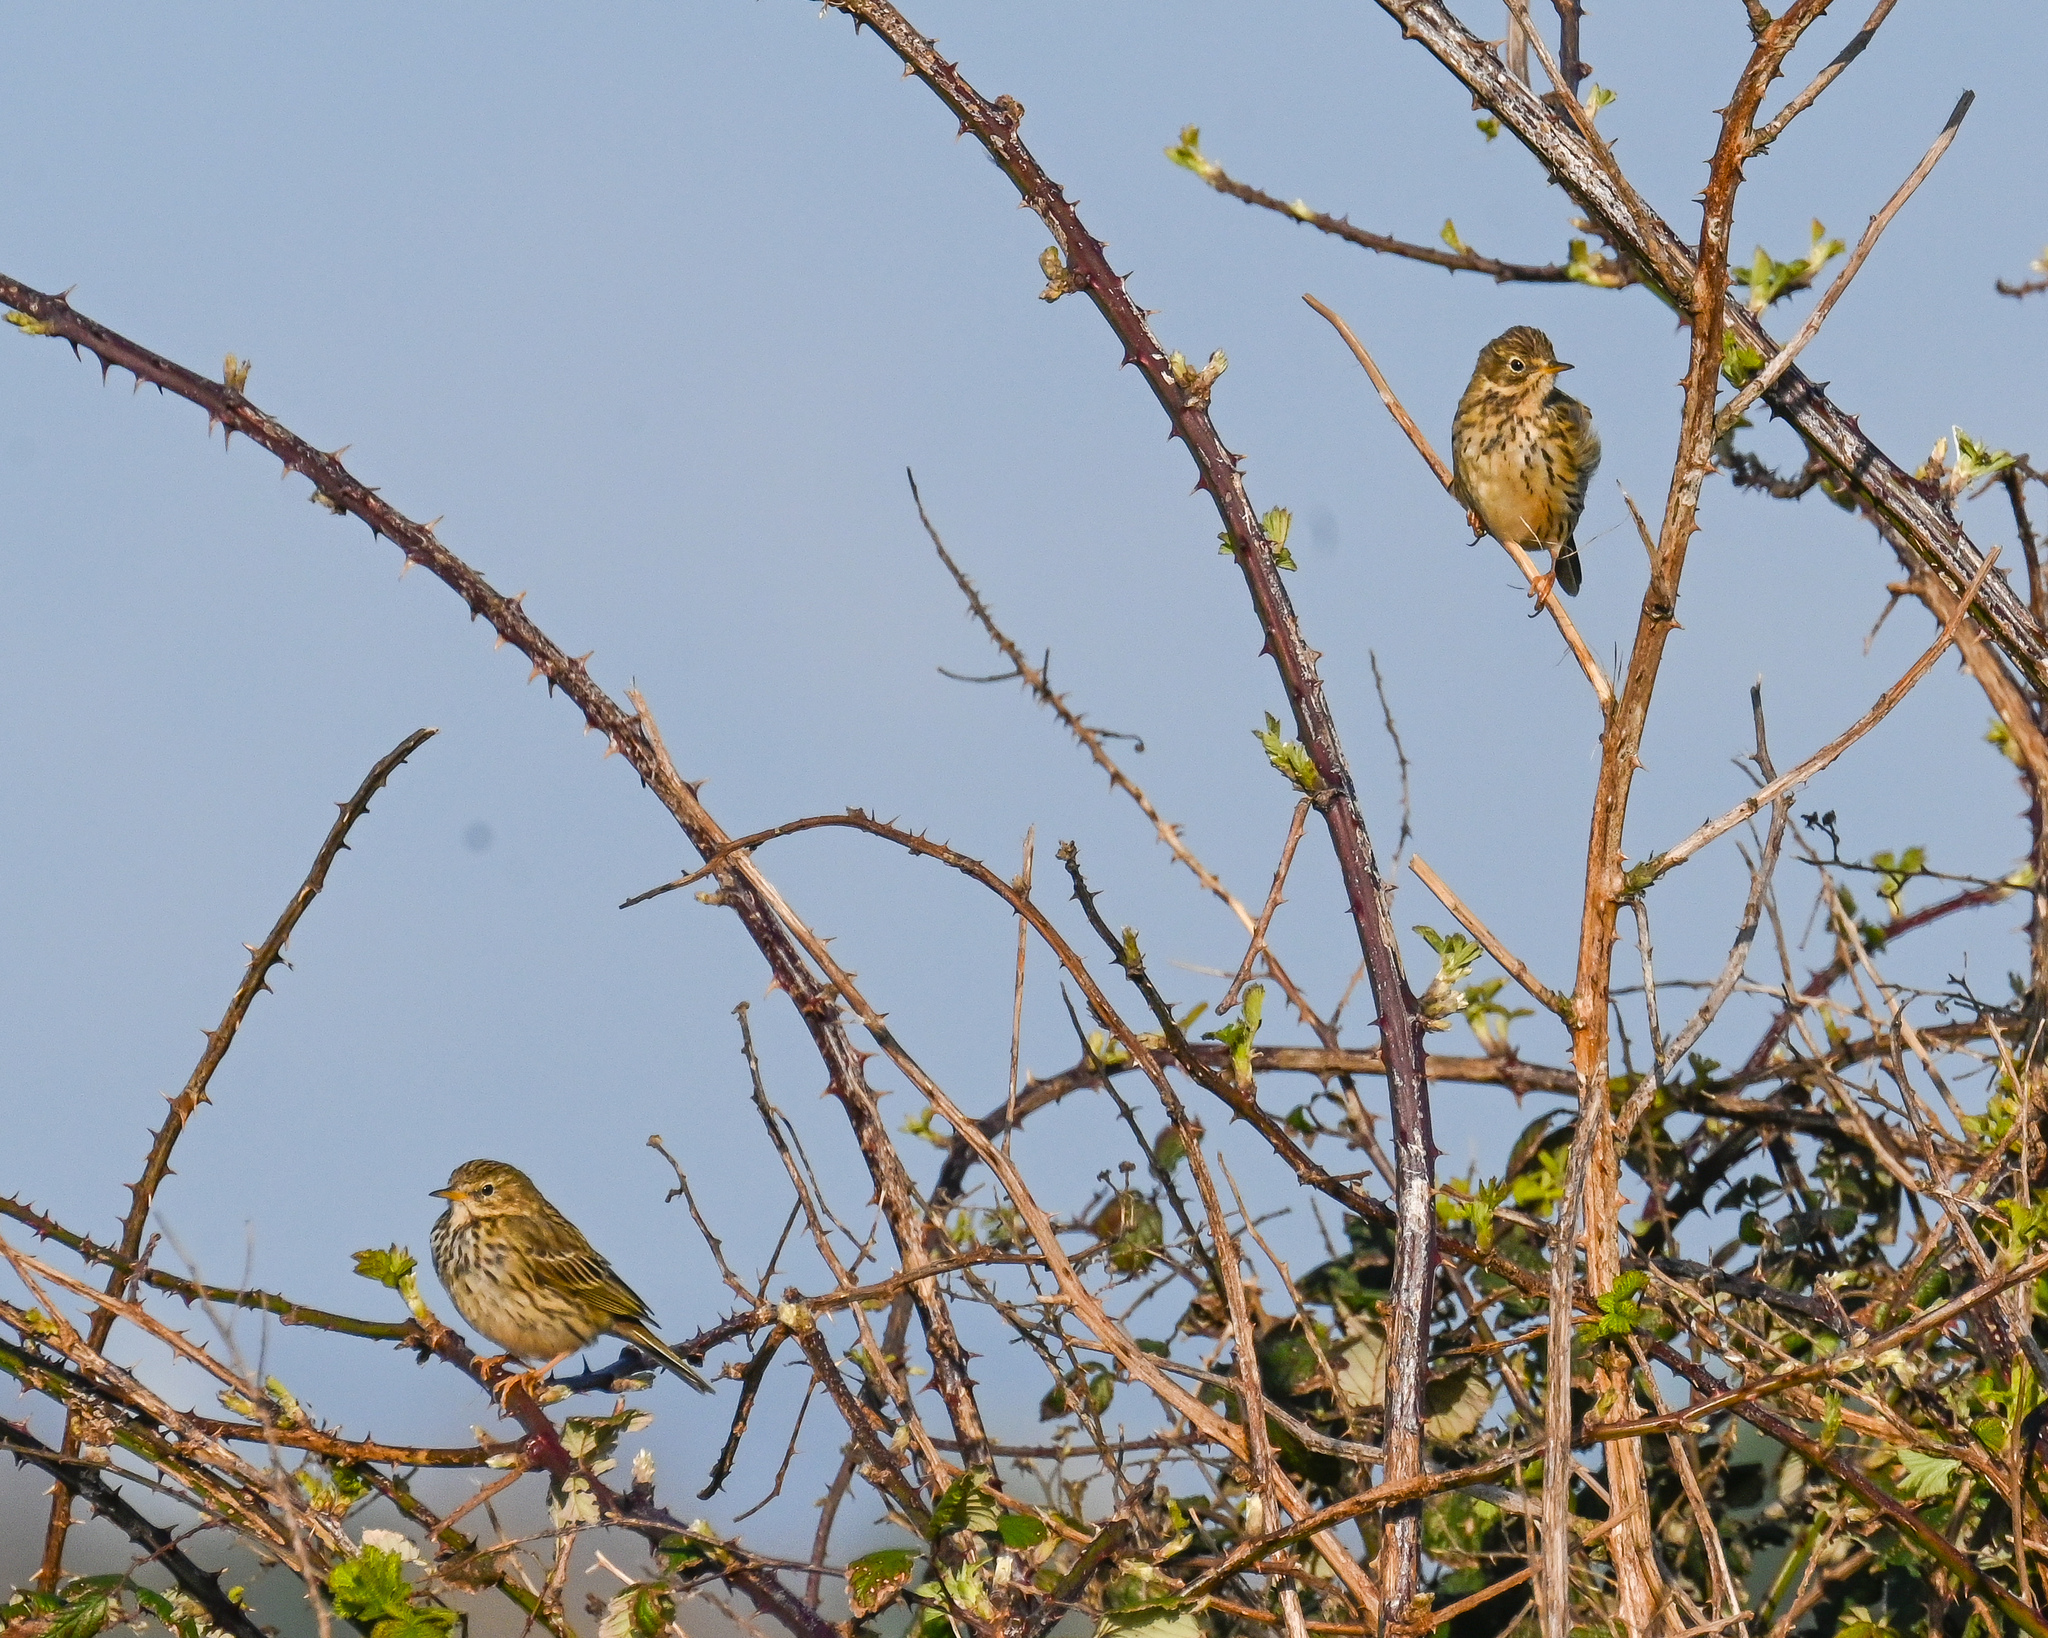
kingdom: Animalia
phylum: Chordata
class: Aves
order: Passeriformes
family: Motacillidae
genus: Anthus
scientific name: Anthus pratensis
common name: Meadow pipit
